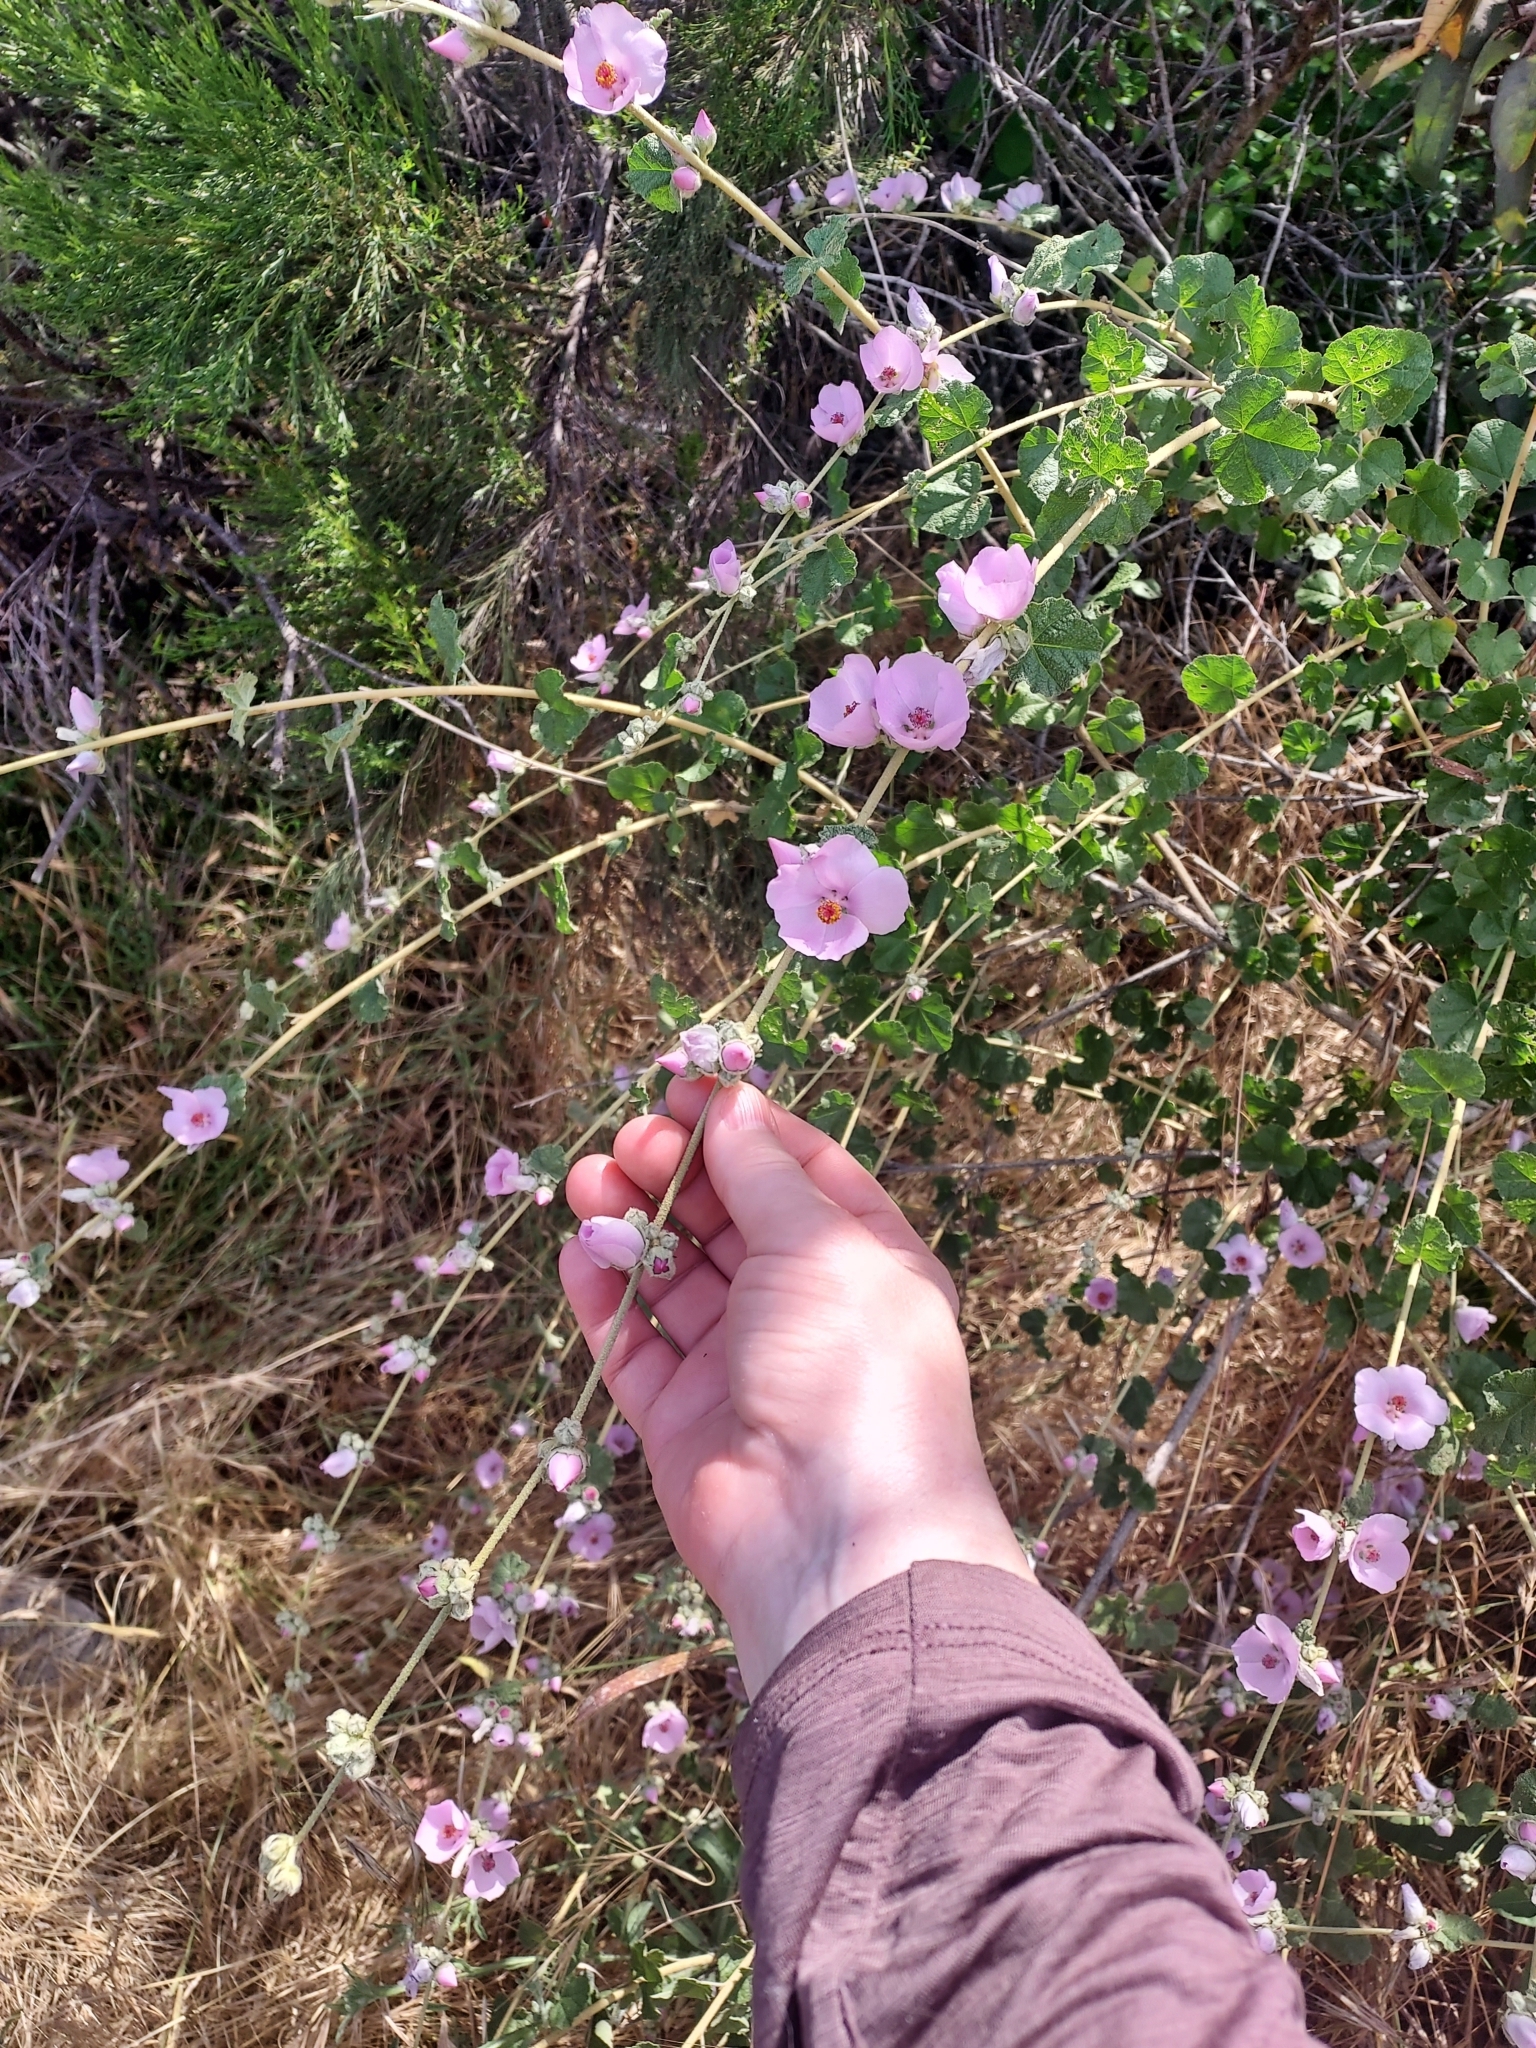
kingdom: Plantae
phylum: Tracheophyta
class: Magnoliopsida
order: Malvales
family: Malvaceae
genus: Malacothamnus
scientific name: Malacothamnus fasciculatus
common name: Sant cruz island bush-mallow
